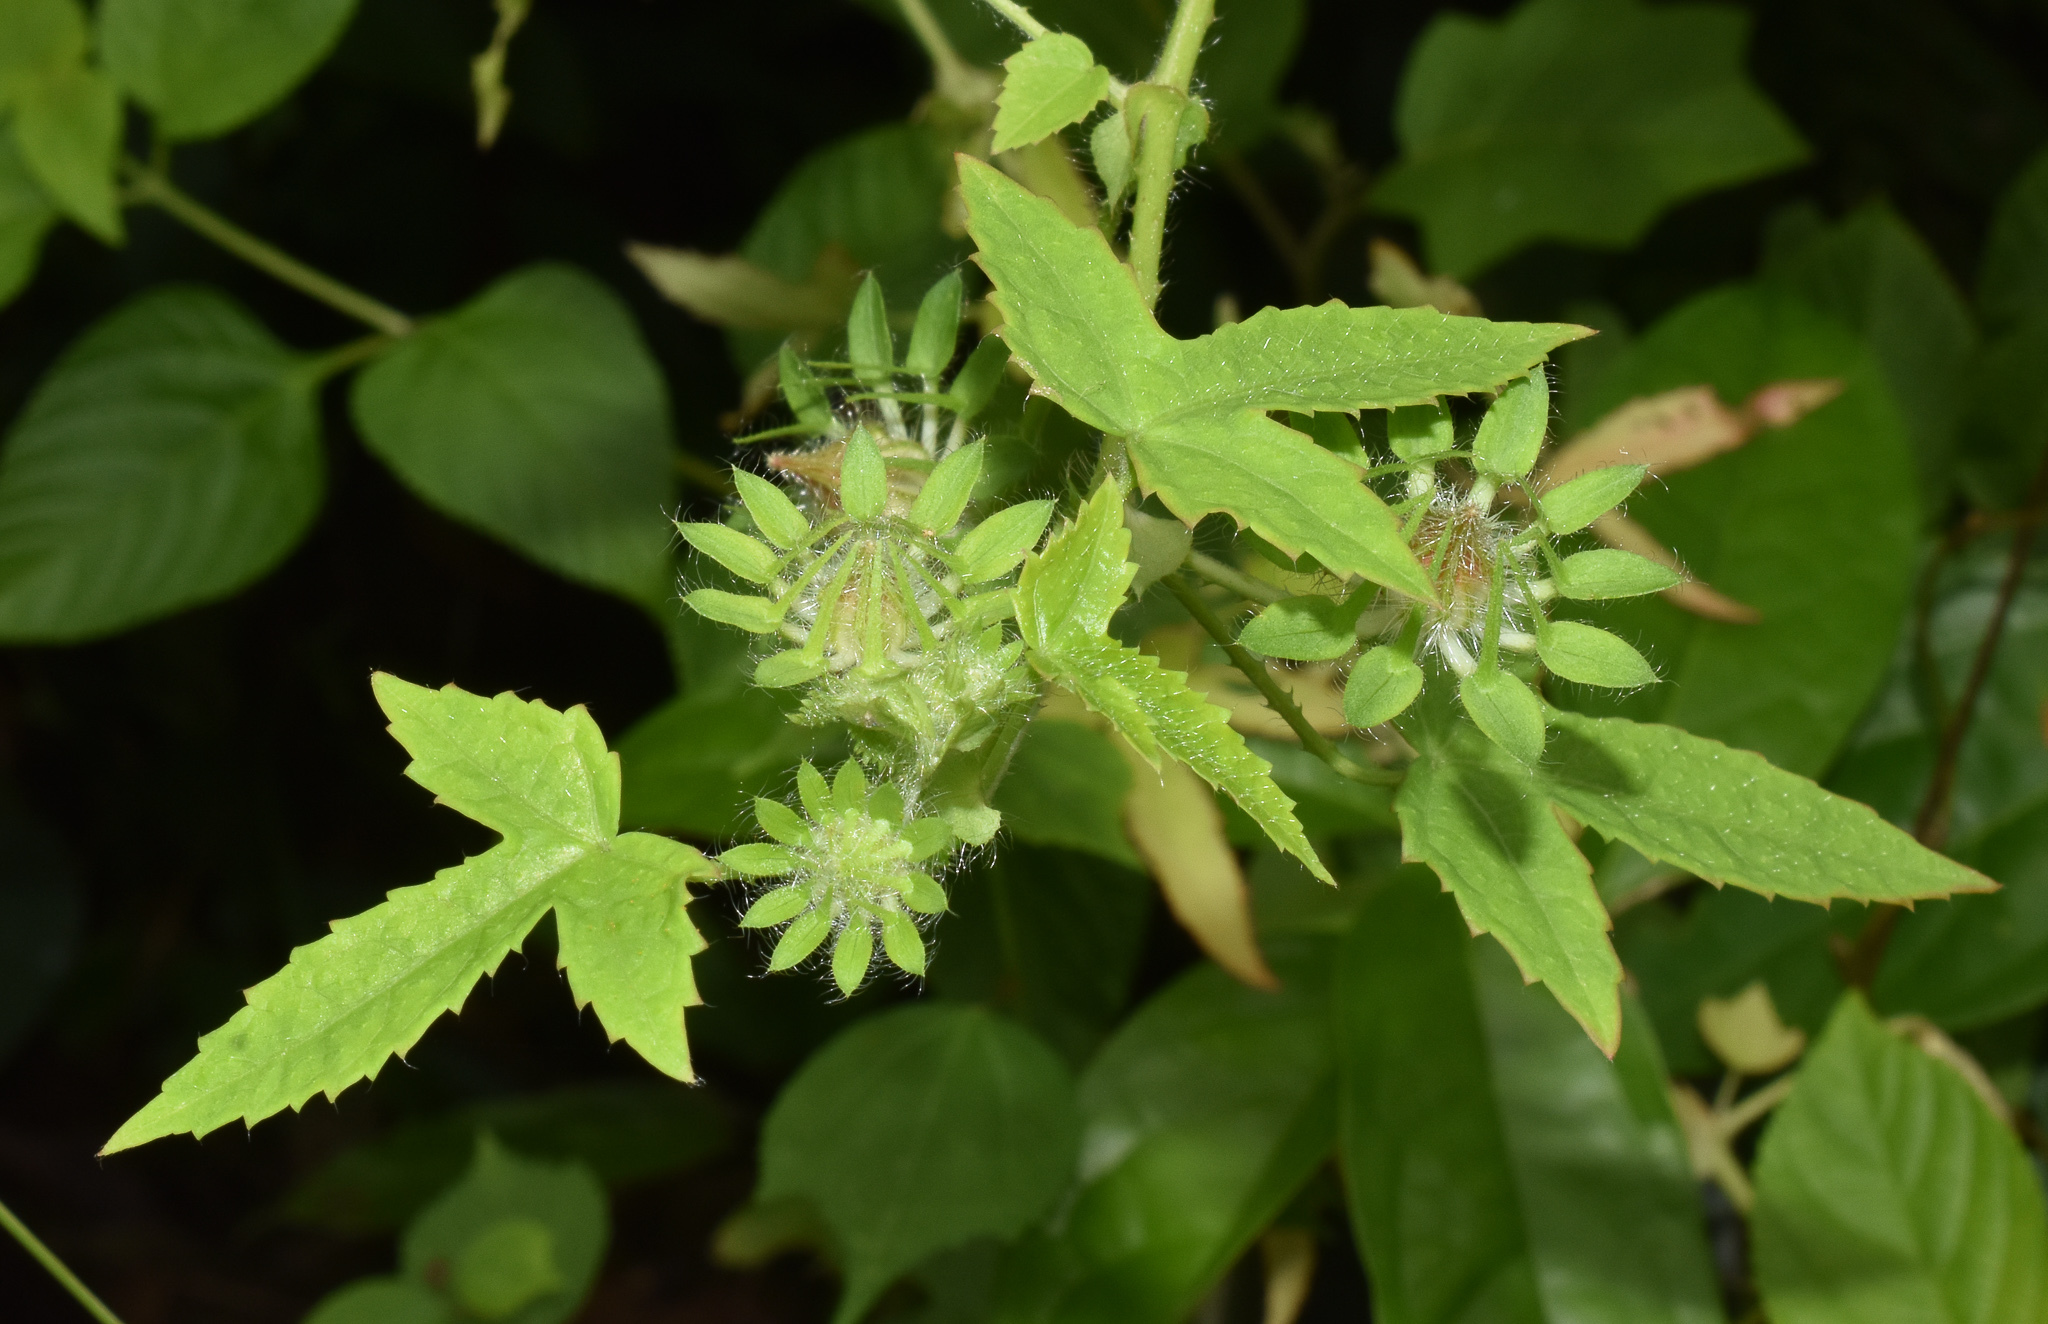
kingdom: Plantae
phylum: Tracheophyta
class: Magnoliopsida
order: Malvales
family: Malvaceae
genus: Hibiscus
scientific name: Hibiscus surattensis
